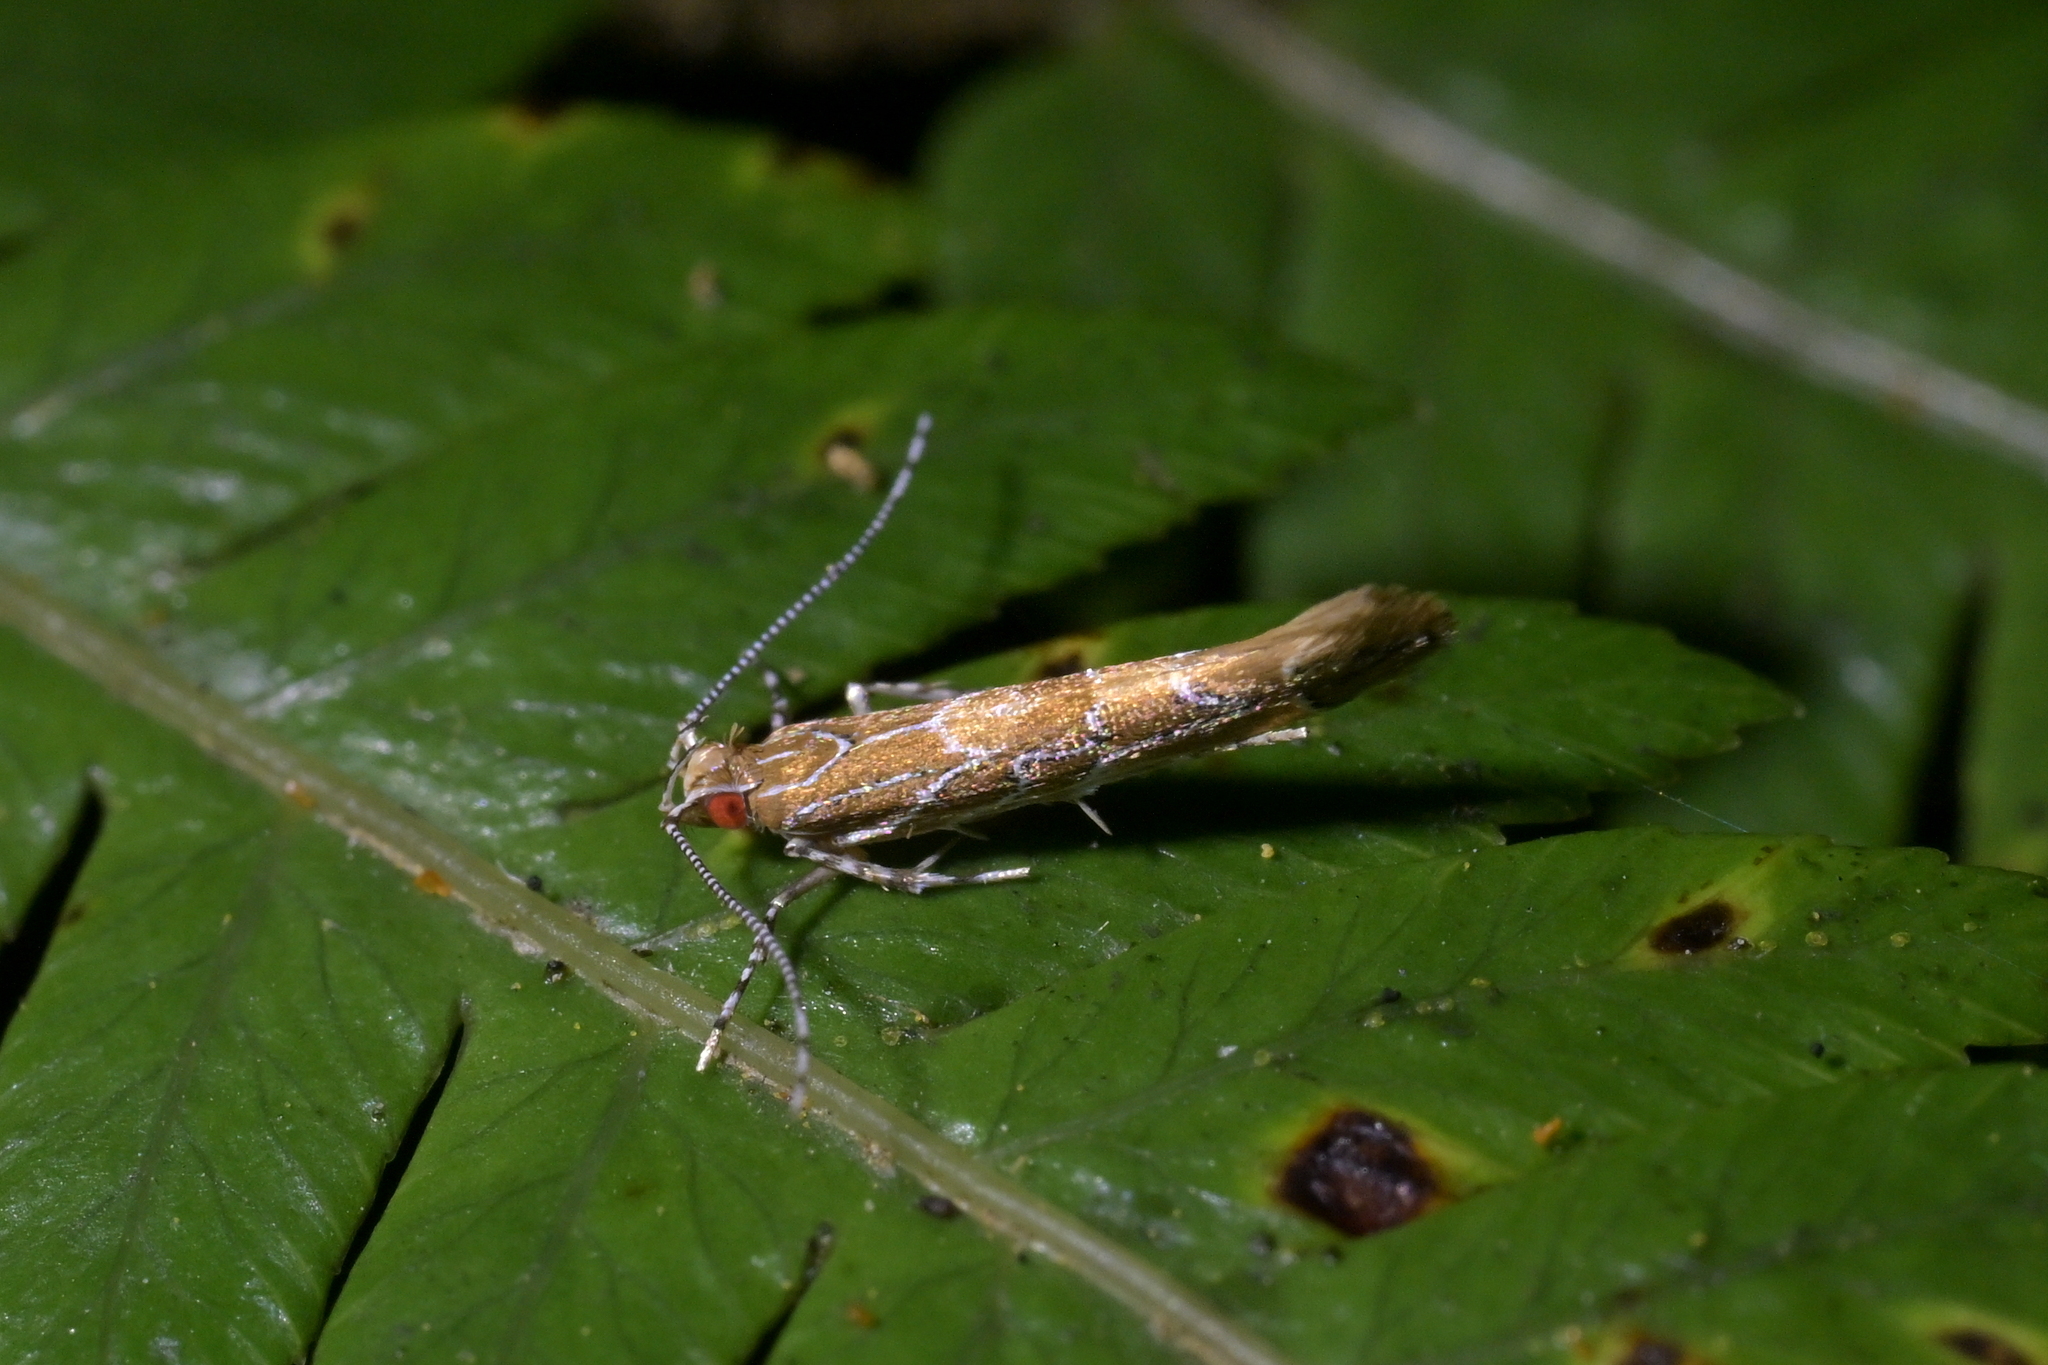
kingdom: Animalia
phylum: Arthropoda
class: Insecta
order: Lepidoptera
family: Cosmopterigidae
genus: Pyroderces
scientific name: Pyroderces apparitella
